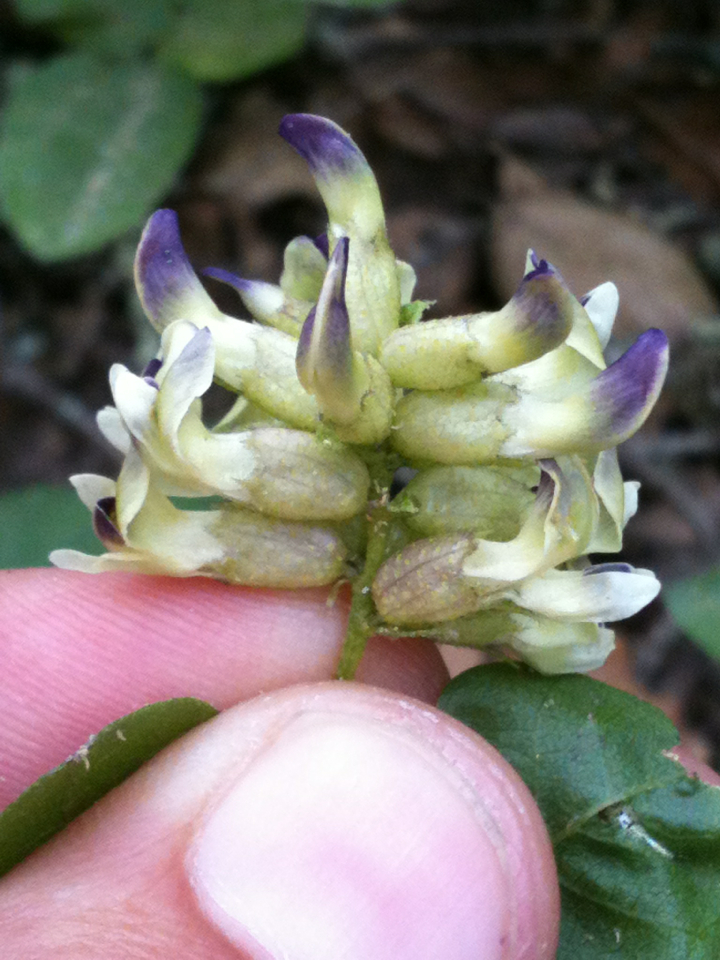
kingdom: Plantae
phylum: Tracheophyta
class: Magnoliopsida
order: Fabales
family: Fabaceae
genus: Rupertia
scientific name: Rupertia physodes
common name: California-tea
